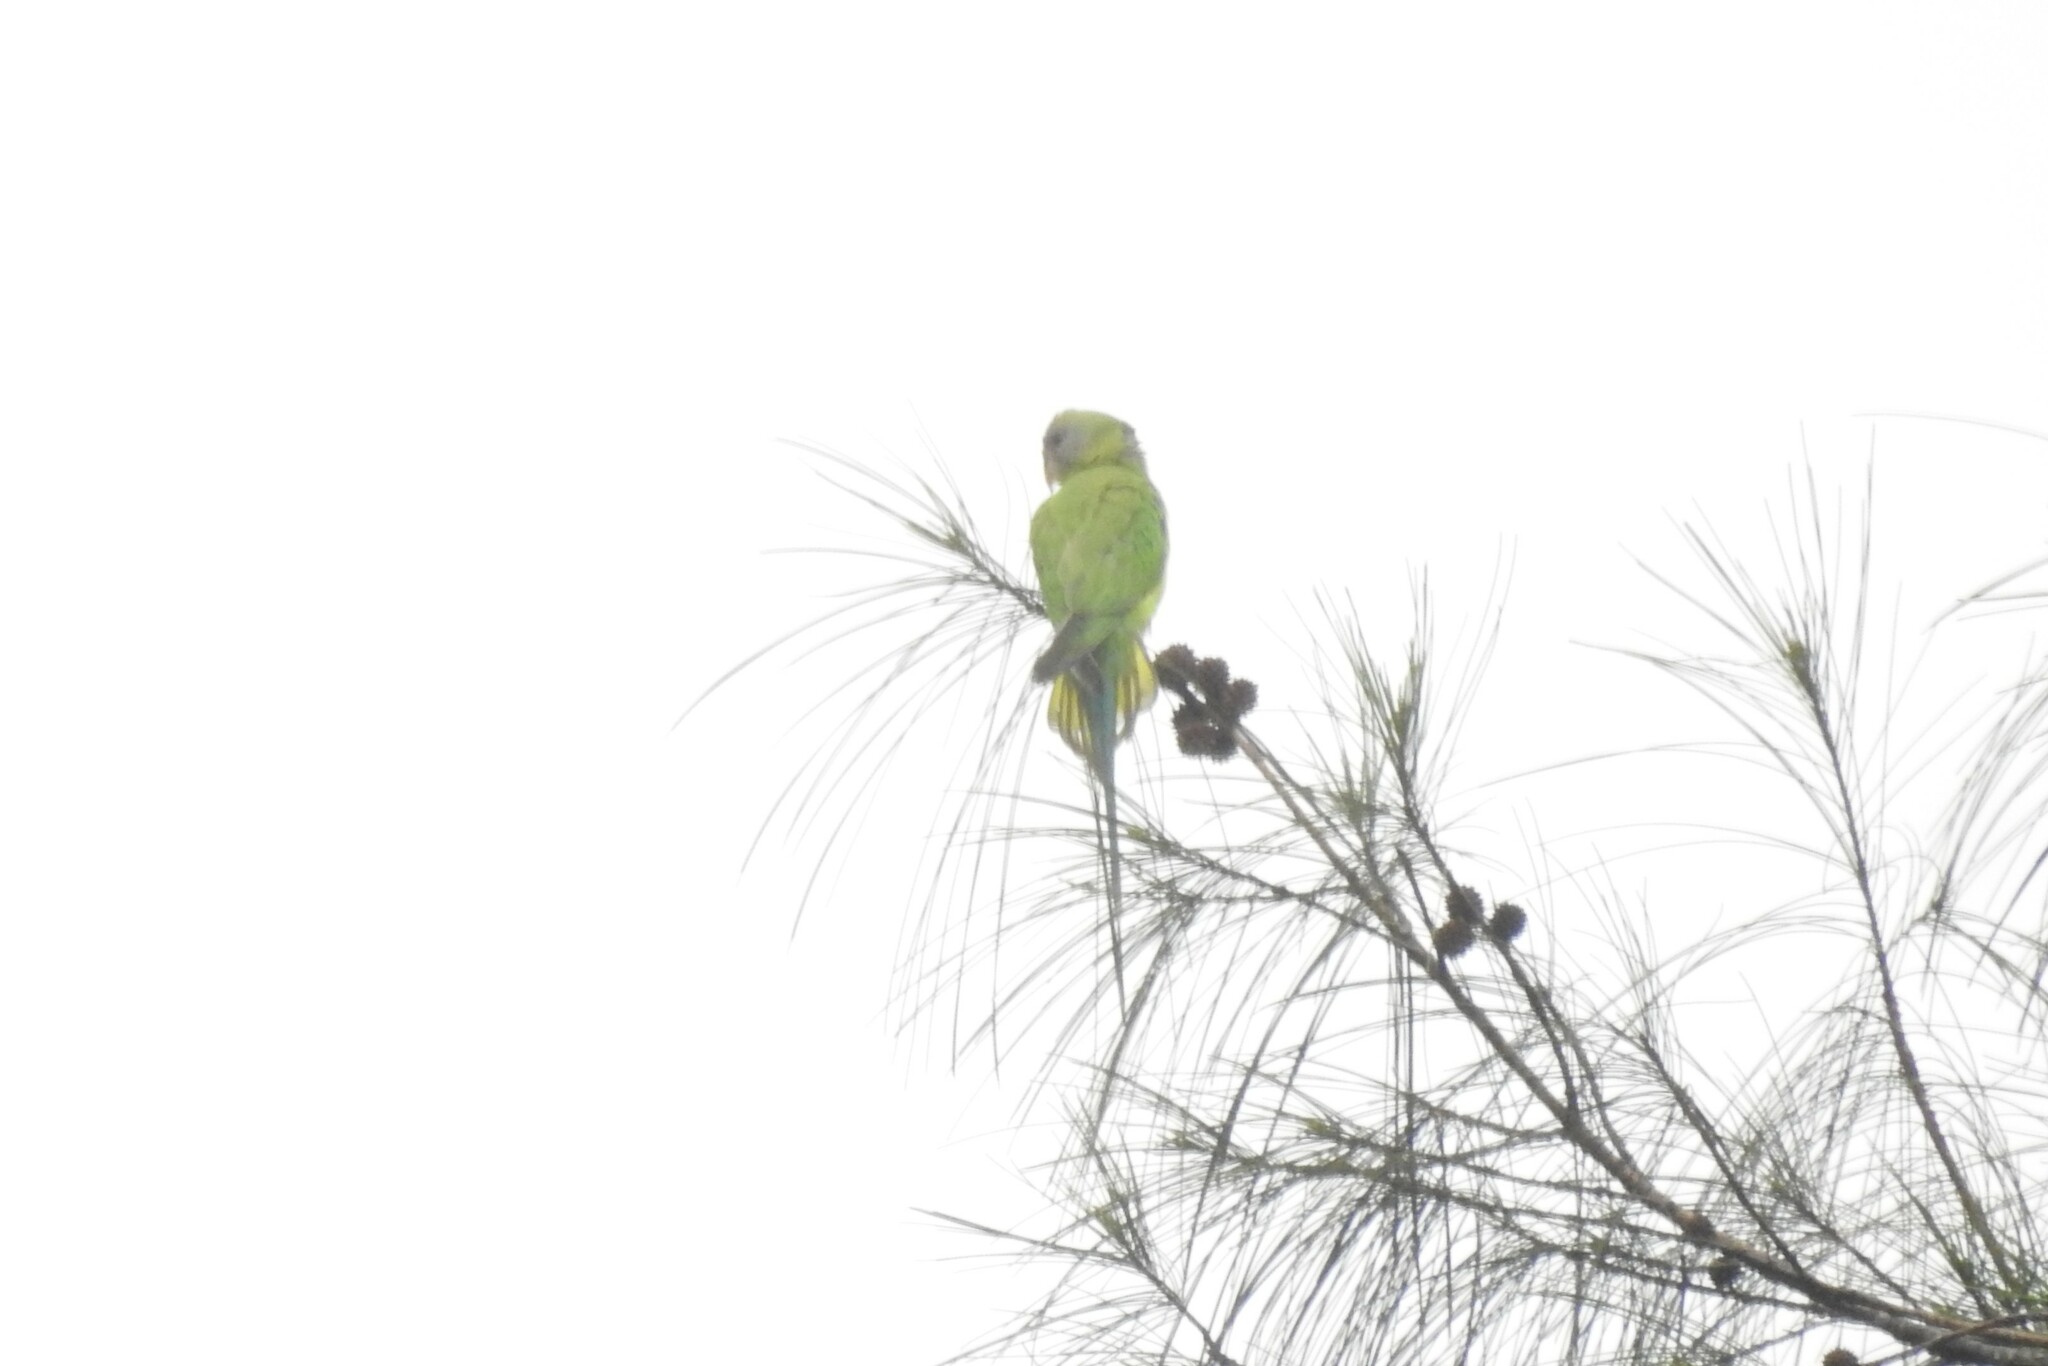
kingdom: Animalia
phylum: Chordata
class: Aves
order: Psittaciformes
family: Psittacidae
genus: Psittacula
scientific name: Psittacula cyanocephala
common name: Plum-headed parakeet
